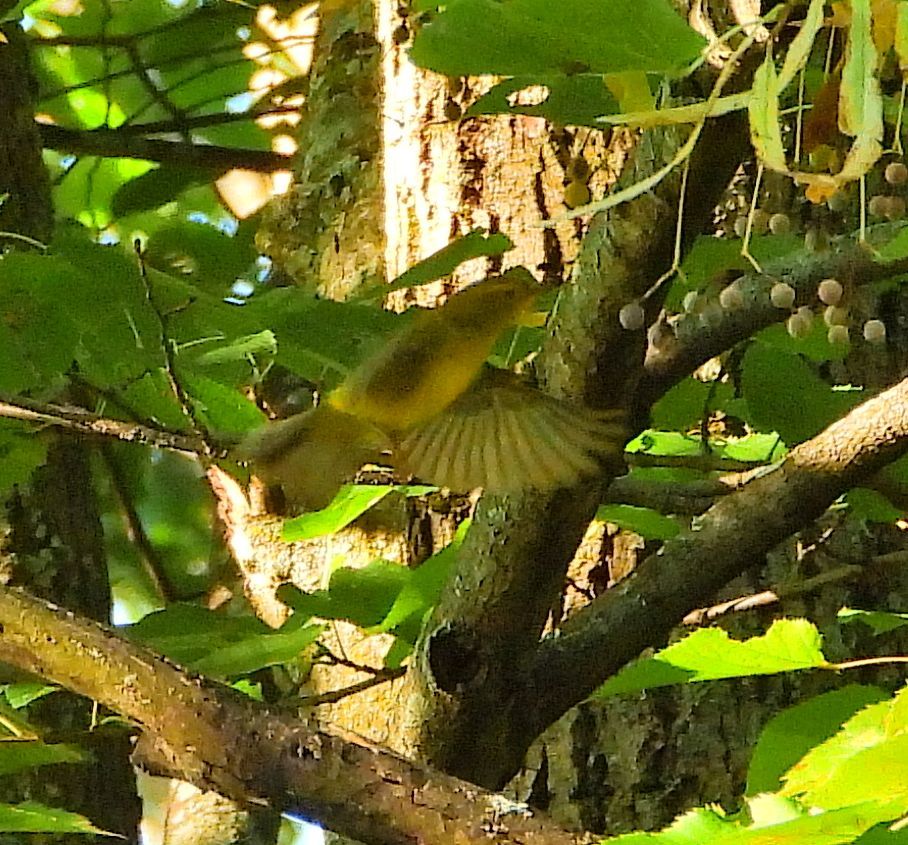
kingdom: Animalia
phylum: Chordata
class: Aves
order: Passeriformes
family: Parulidae
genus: Cardellina
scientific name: Cardellina pusilla
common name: Wilson's warbler
